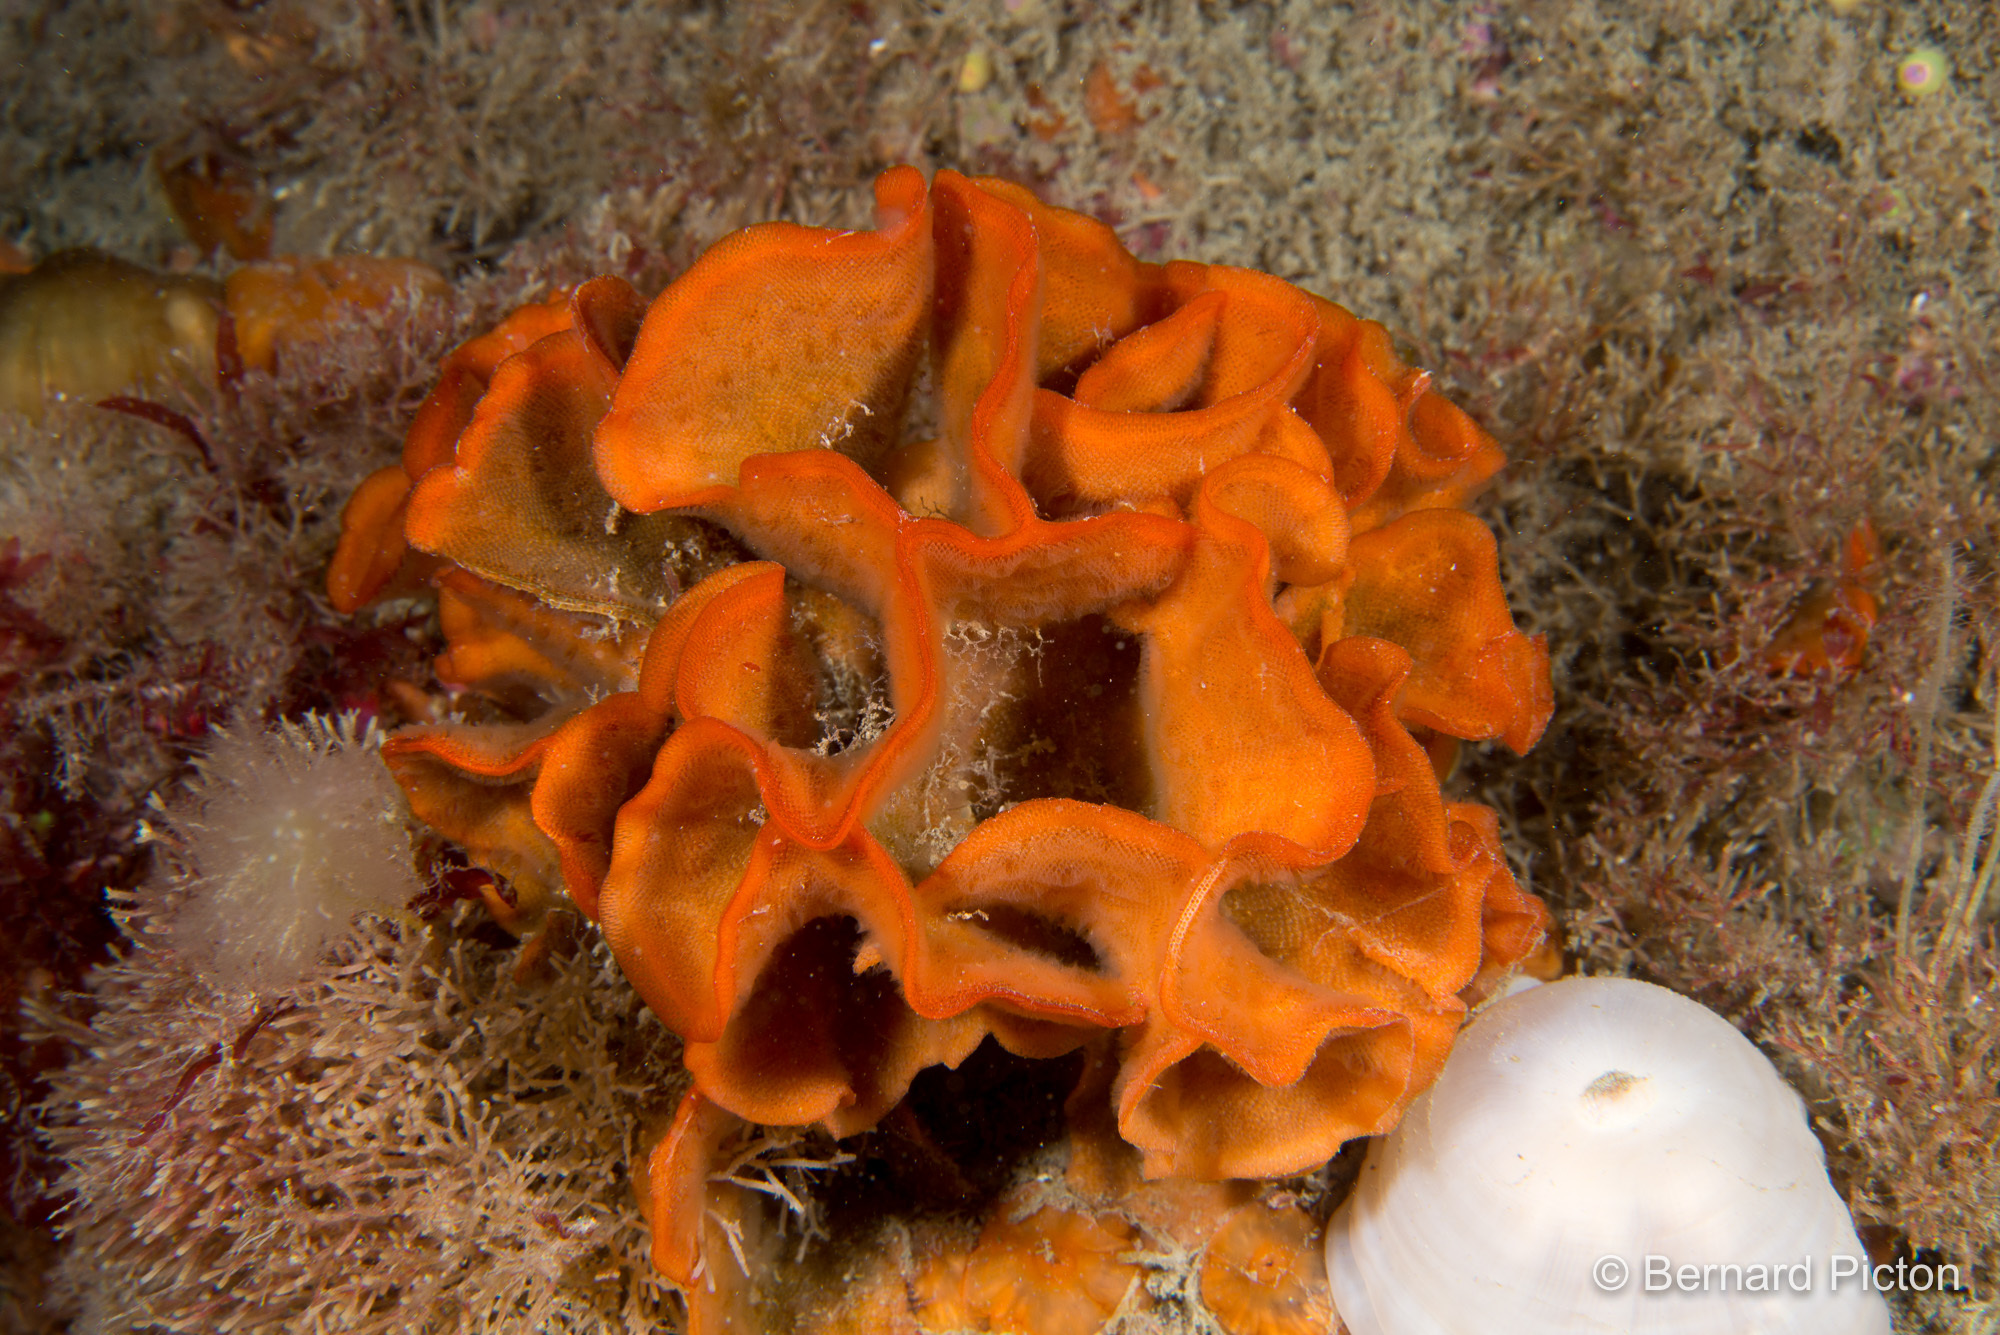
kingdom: Animalia
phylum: Bryozoa
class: Gymnolaemata
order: Cheilostomatida
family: Bitectiporidae
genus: Pentapora
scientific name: Pentapora foliacea
